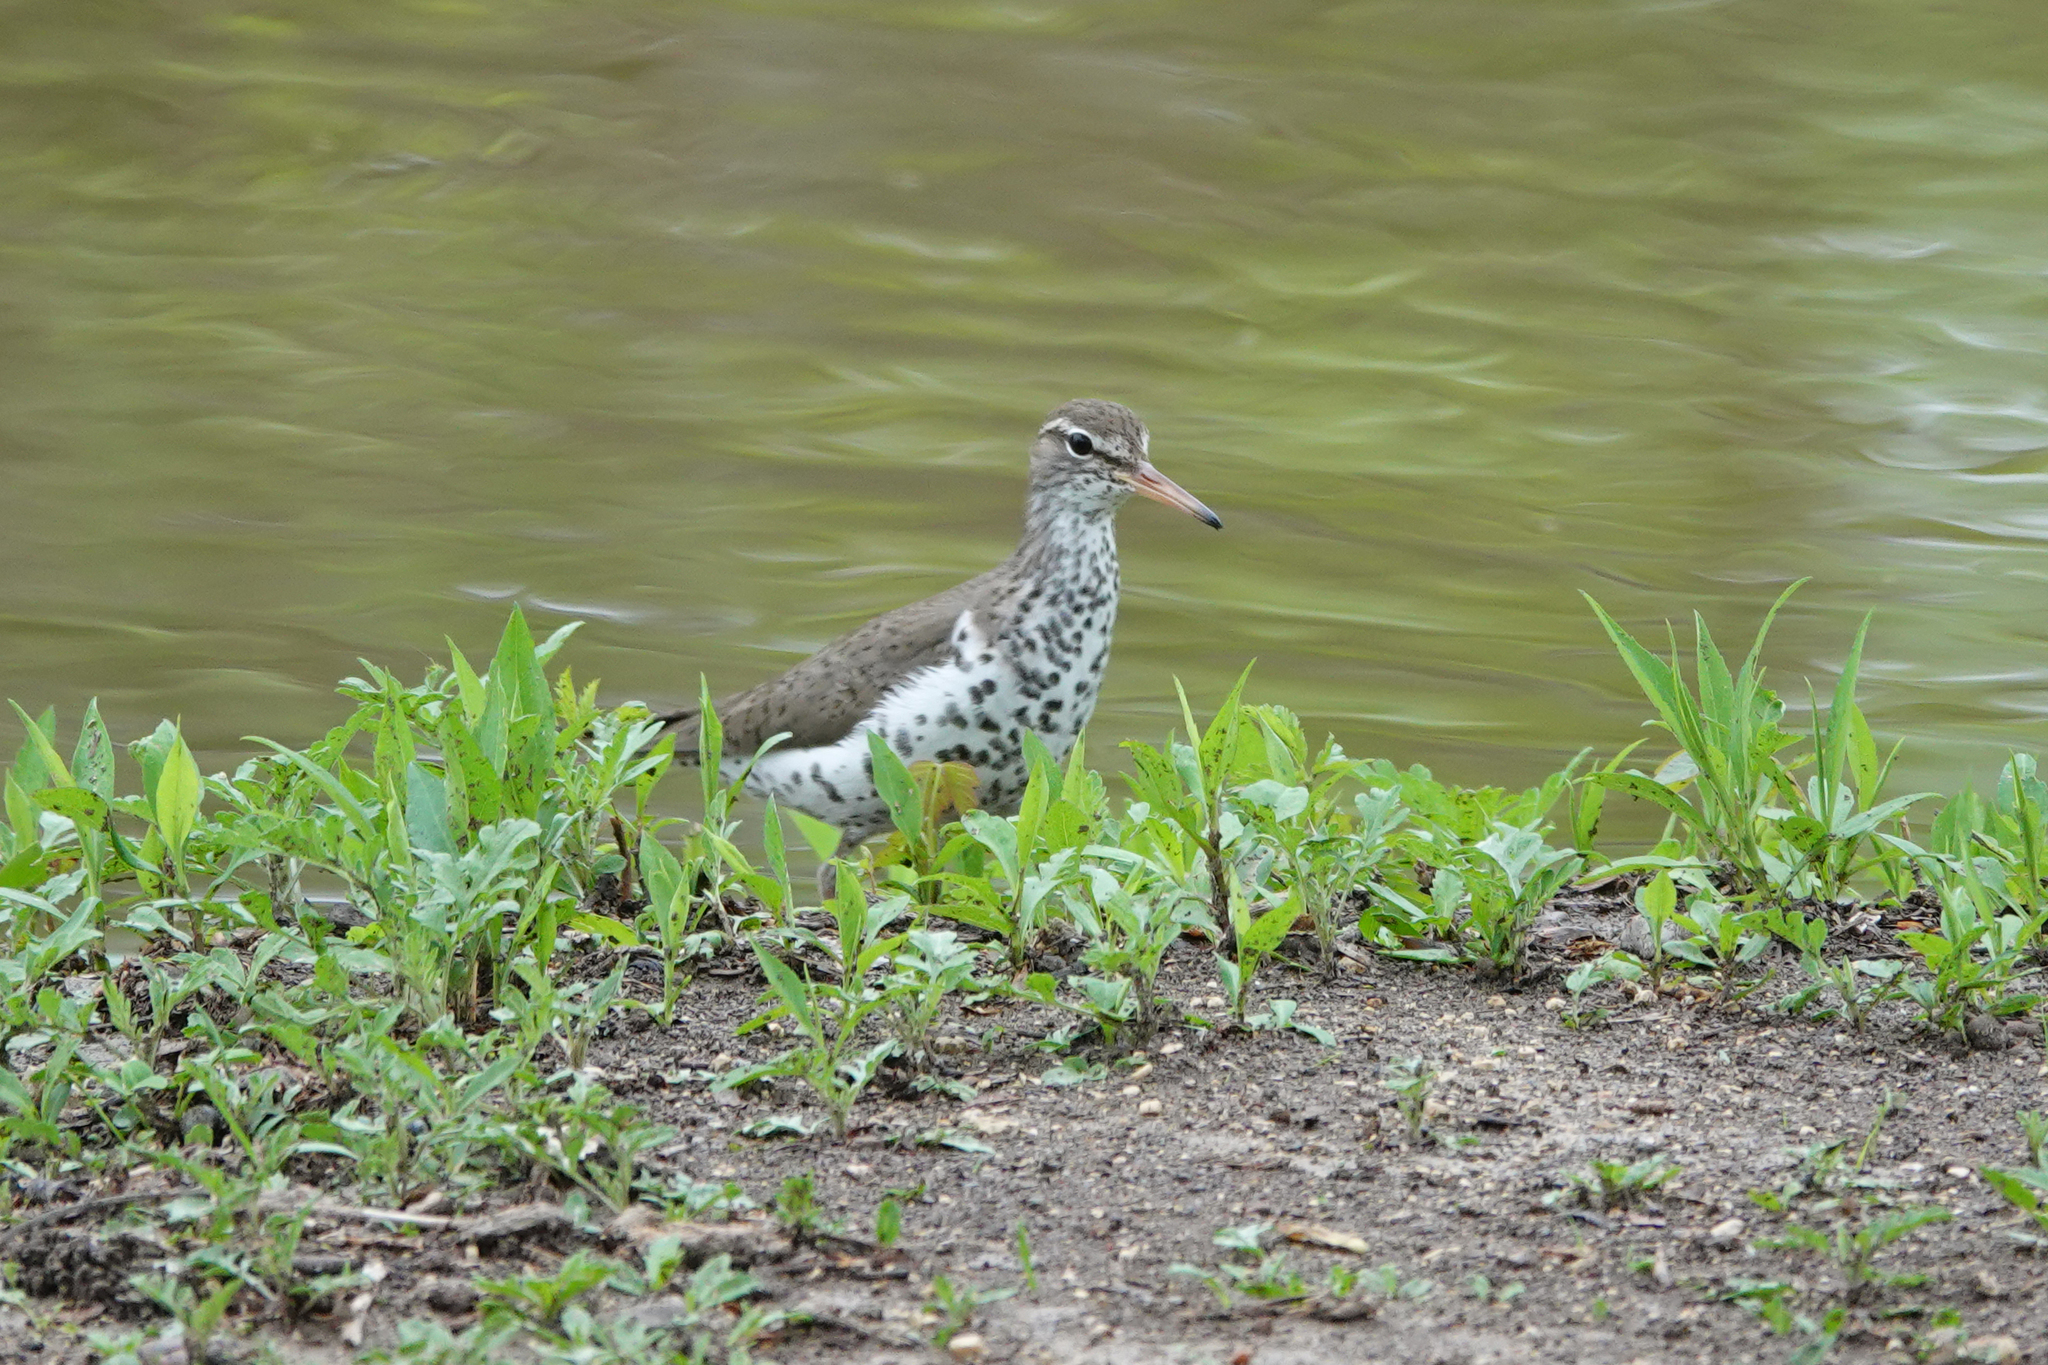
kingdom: Animalia
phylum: Chordata
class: Aves
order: Charadriiformes
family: Scolopacidae
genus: Actitis
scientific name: Actitis macularius
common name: Spotted sandpiper
